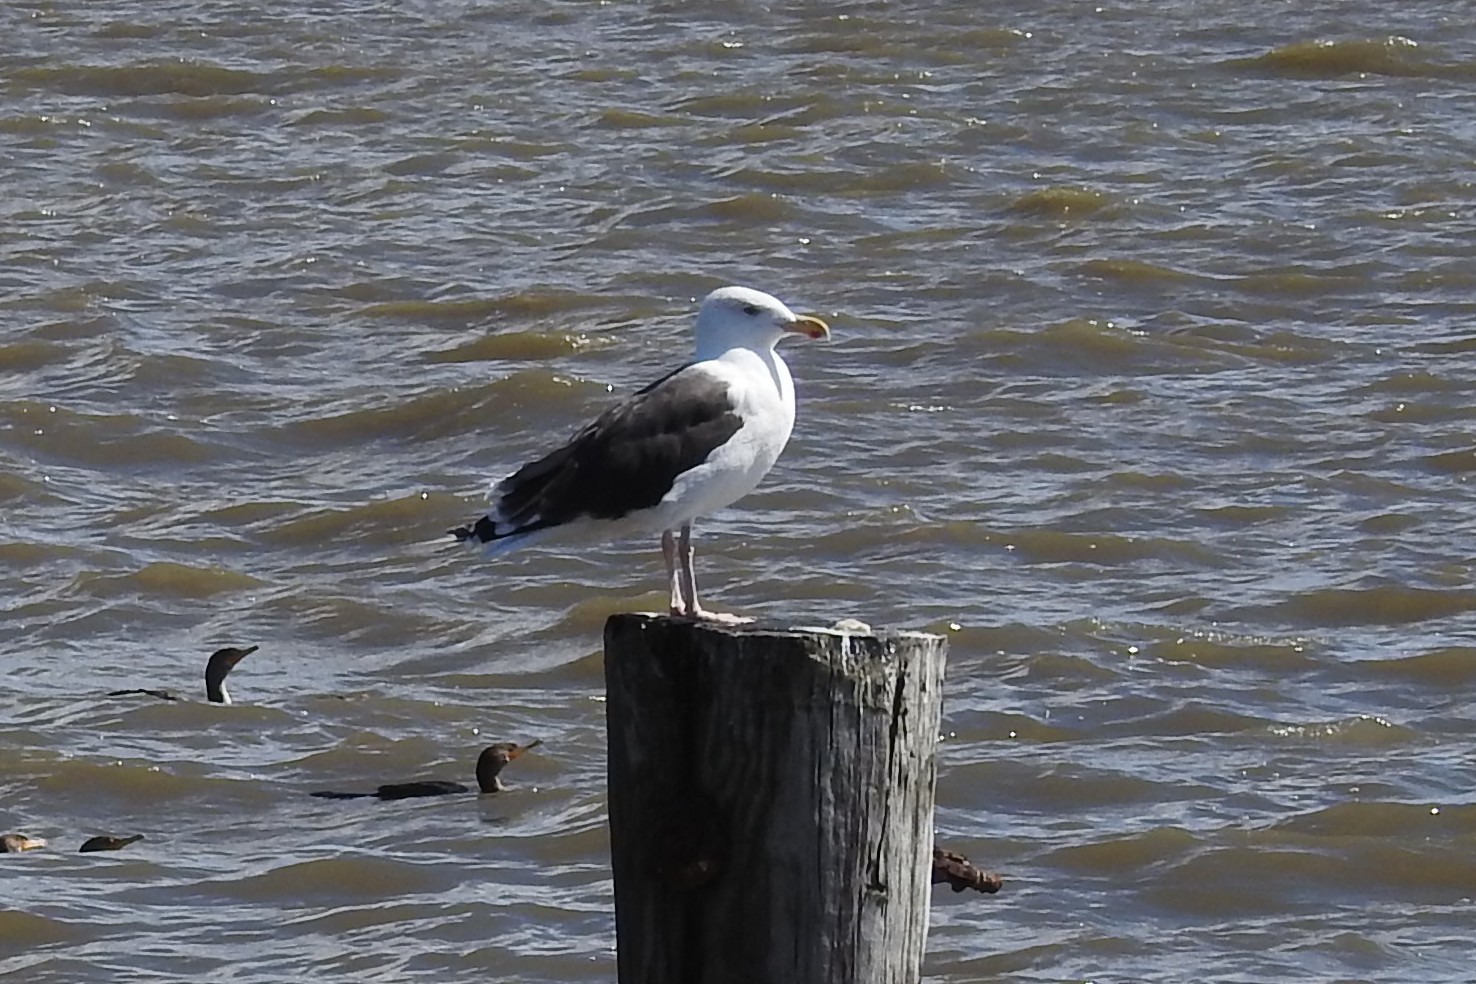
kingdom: Animalia
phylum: Chordata
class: Aves
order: Charadriiformes
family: Laridae
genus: Larus
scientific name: Larus marinus
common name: Great black-backed gull
